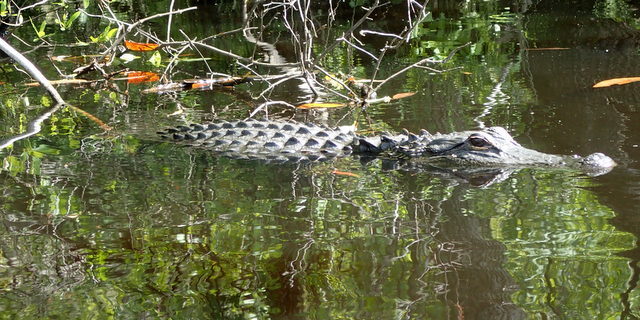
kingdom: Animalia
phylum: Chordata
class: Crocodylia
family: Alligatoridae
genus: Alligator
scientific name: Alligator mississippiensis
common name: American alligator
